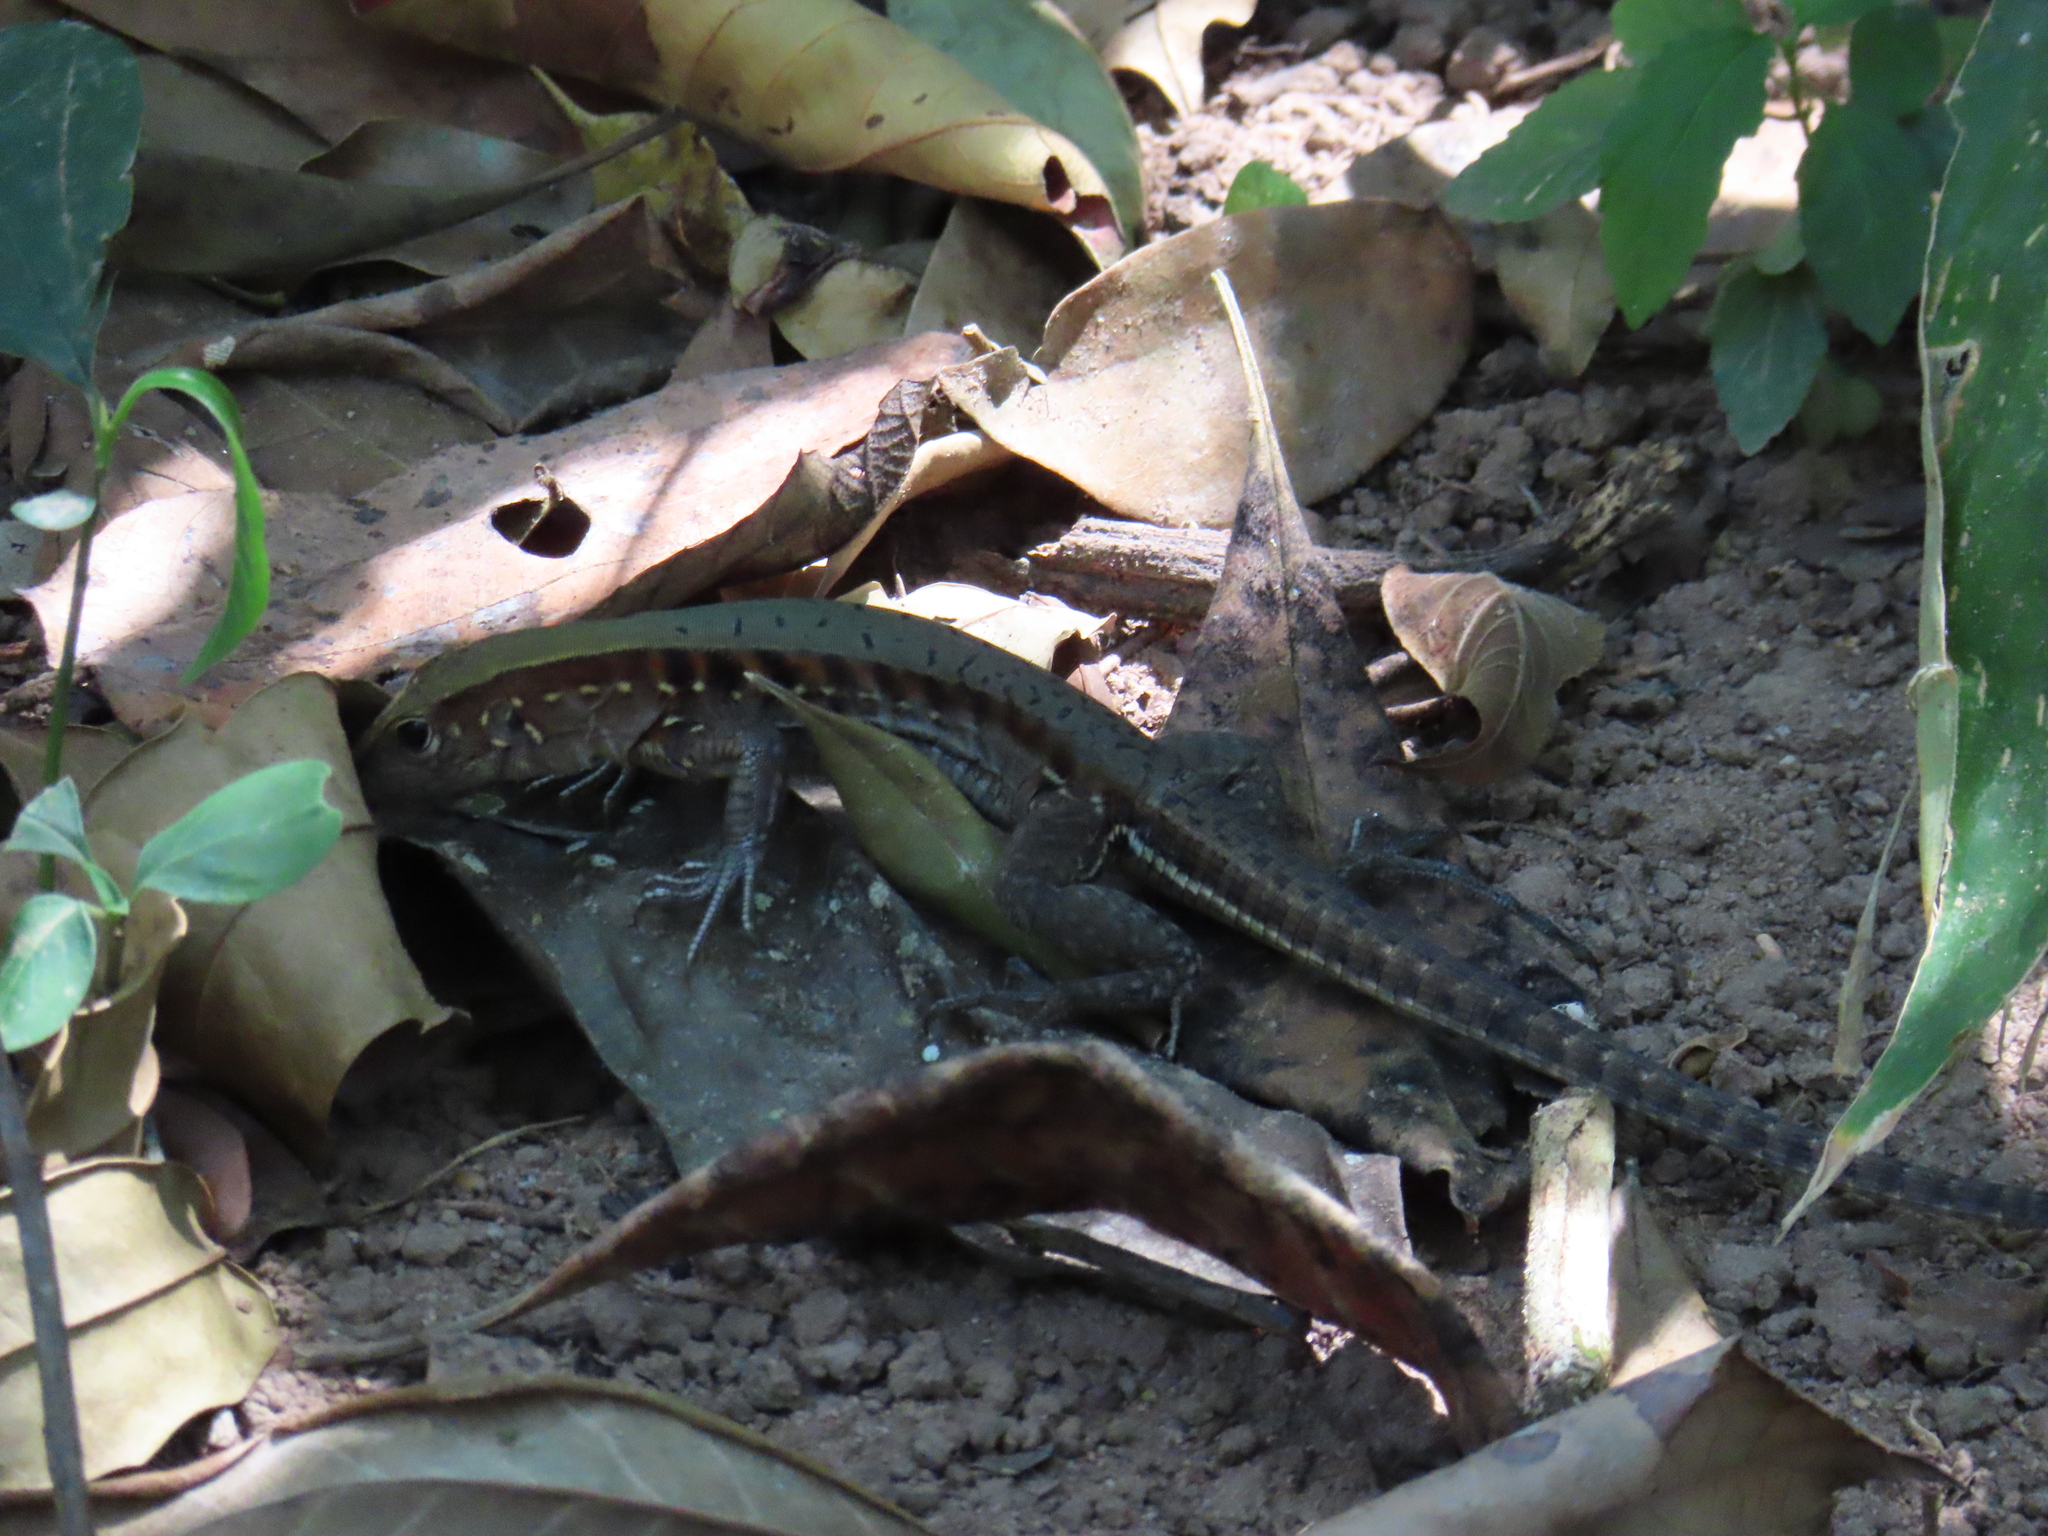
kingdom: Animalia
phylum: Chordata
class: Squamata
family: Teiidae
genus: Holcosus
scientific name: Holcosus undulatus
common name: Rainbow ameiva
